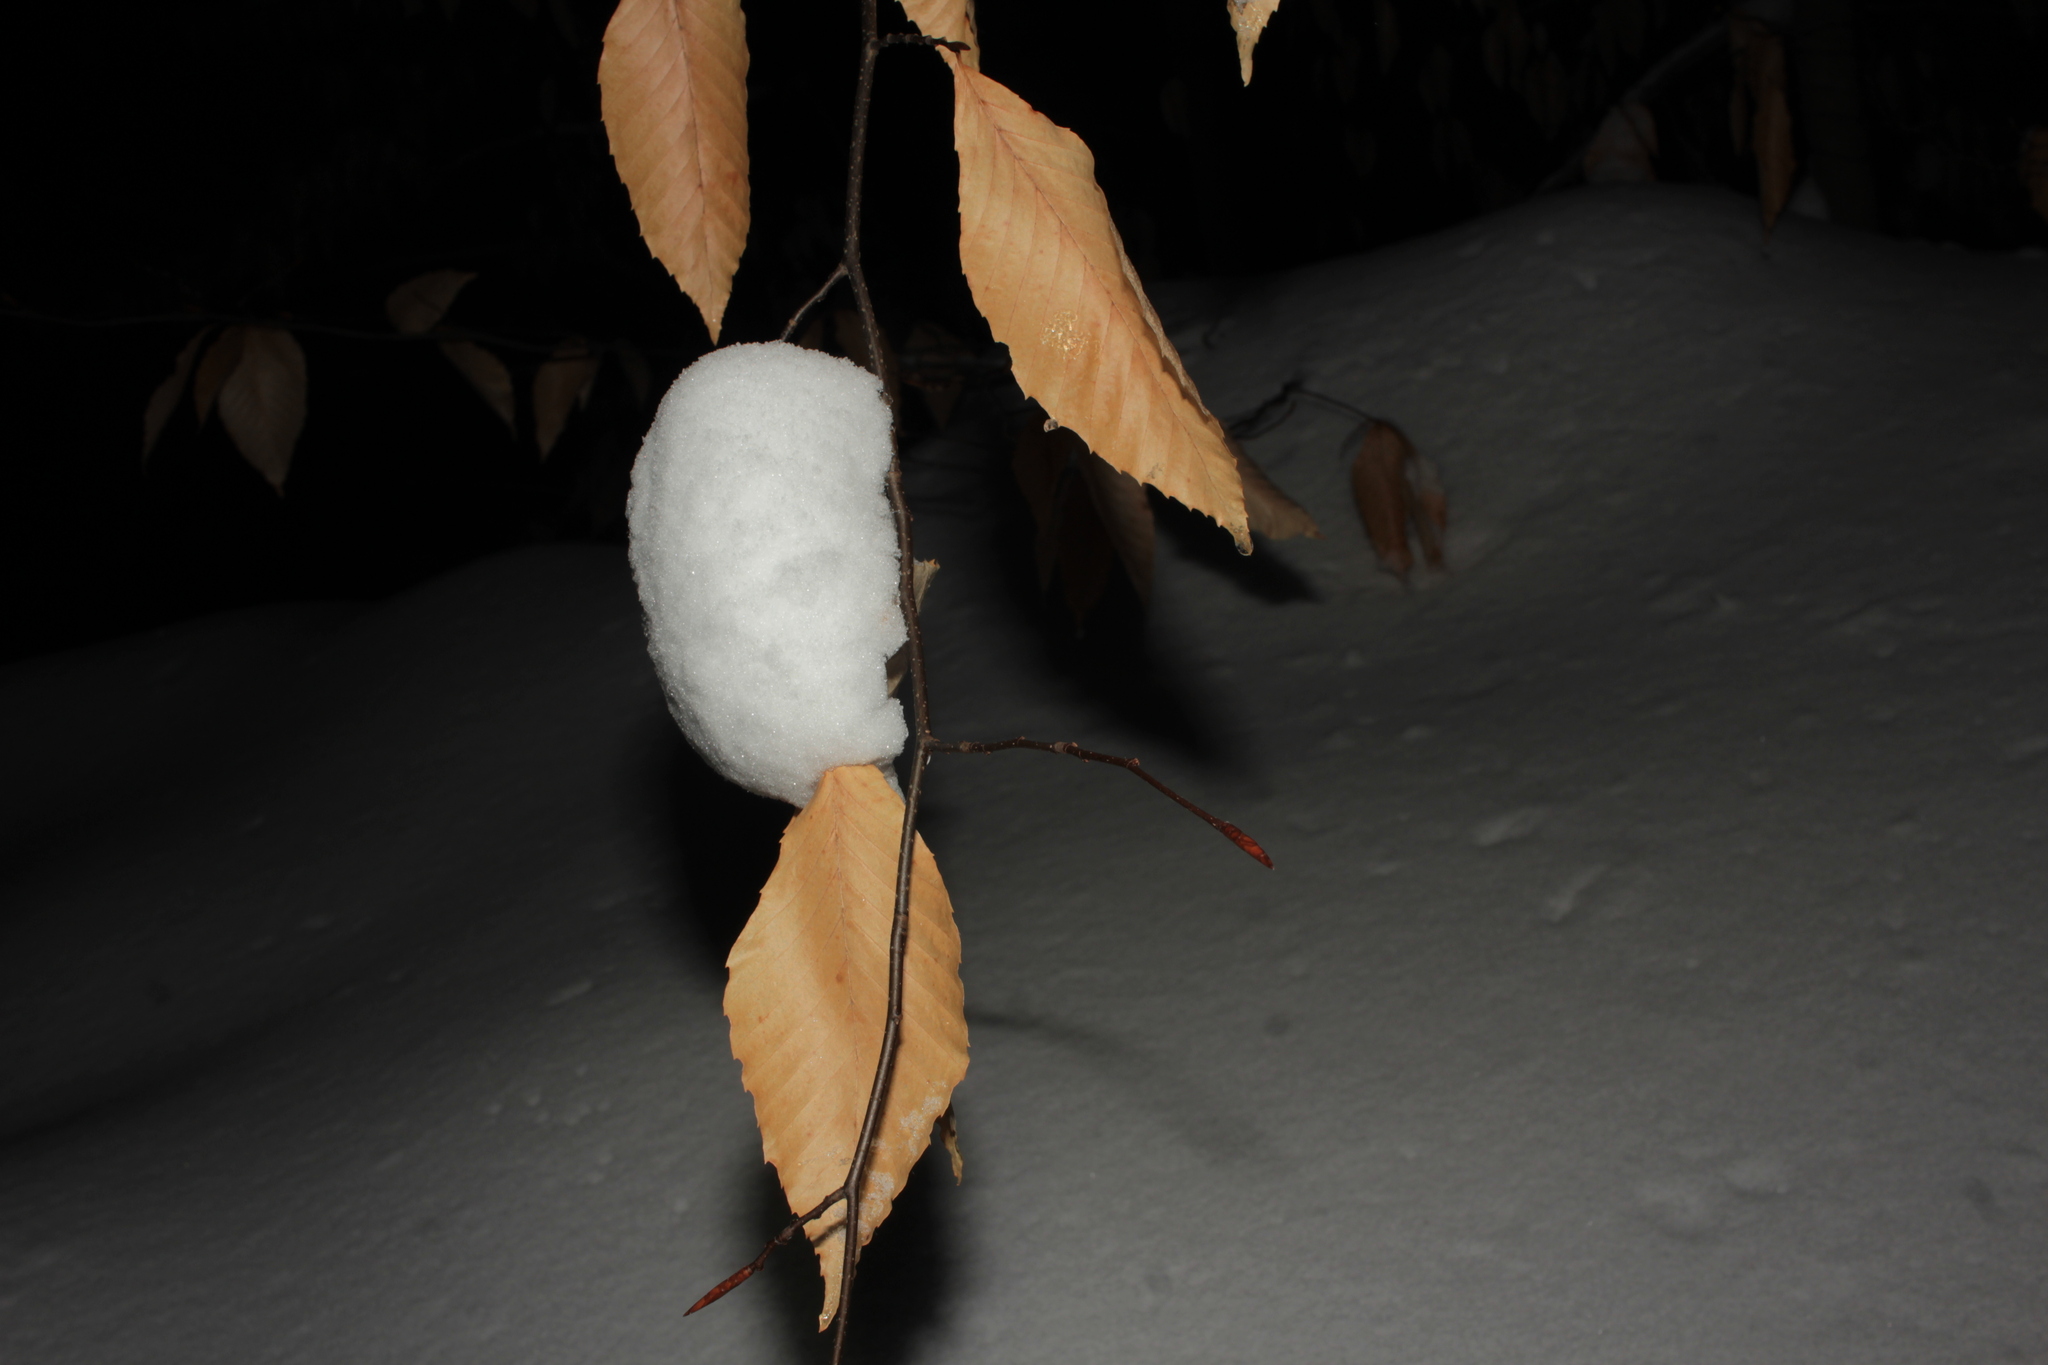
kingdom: Plantae
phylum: Tracheophyta
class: Magnoliopsida
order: Fagales
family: Fagaceae
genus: Fagus
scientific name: Fagus grandifolia
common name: American beech
